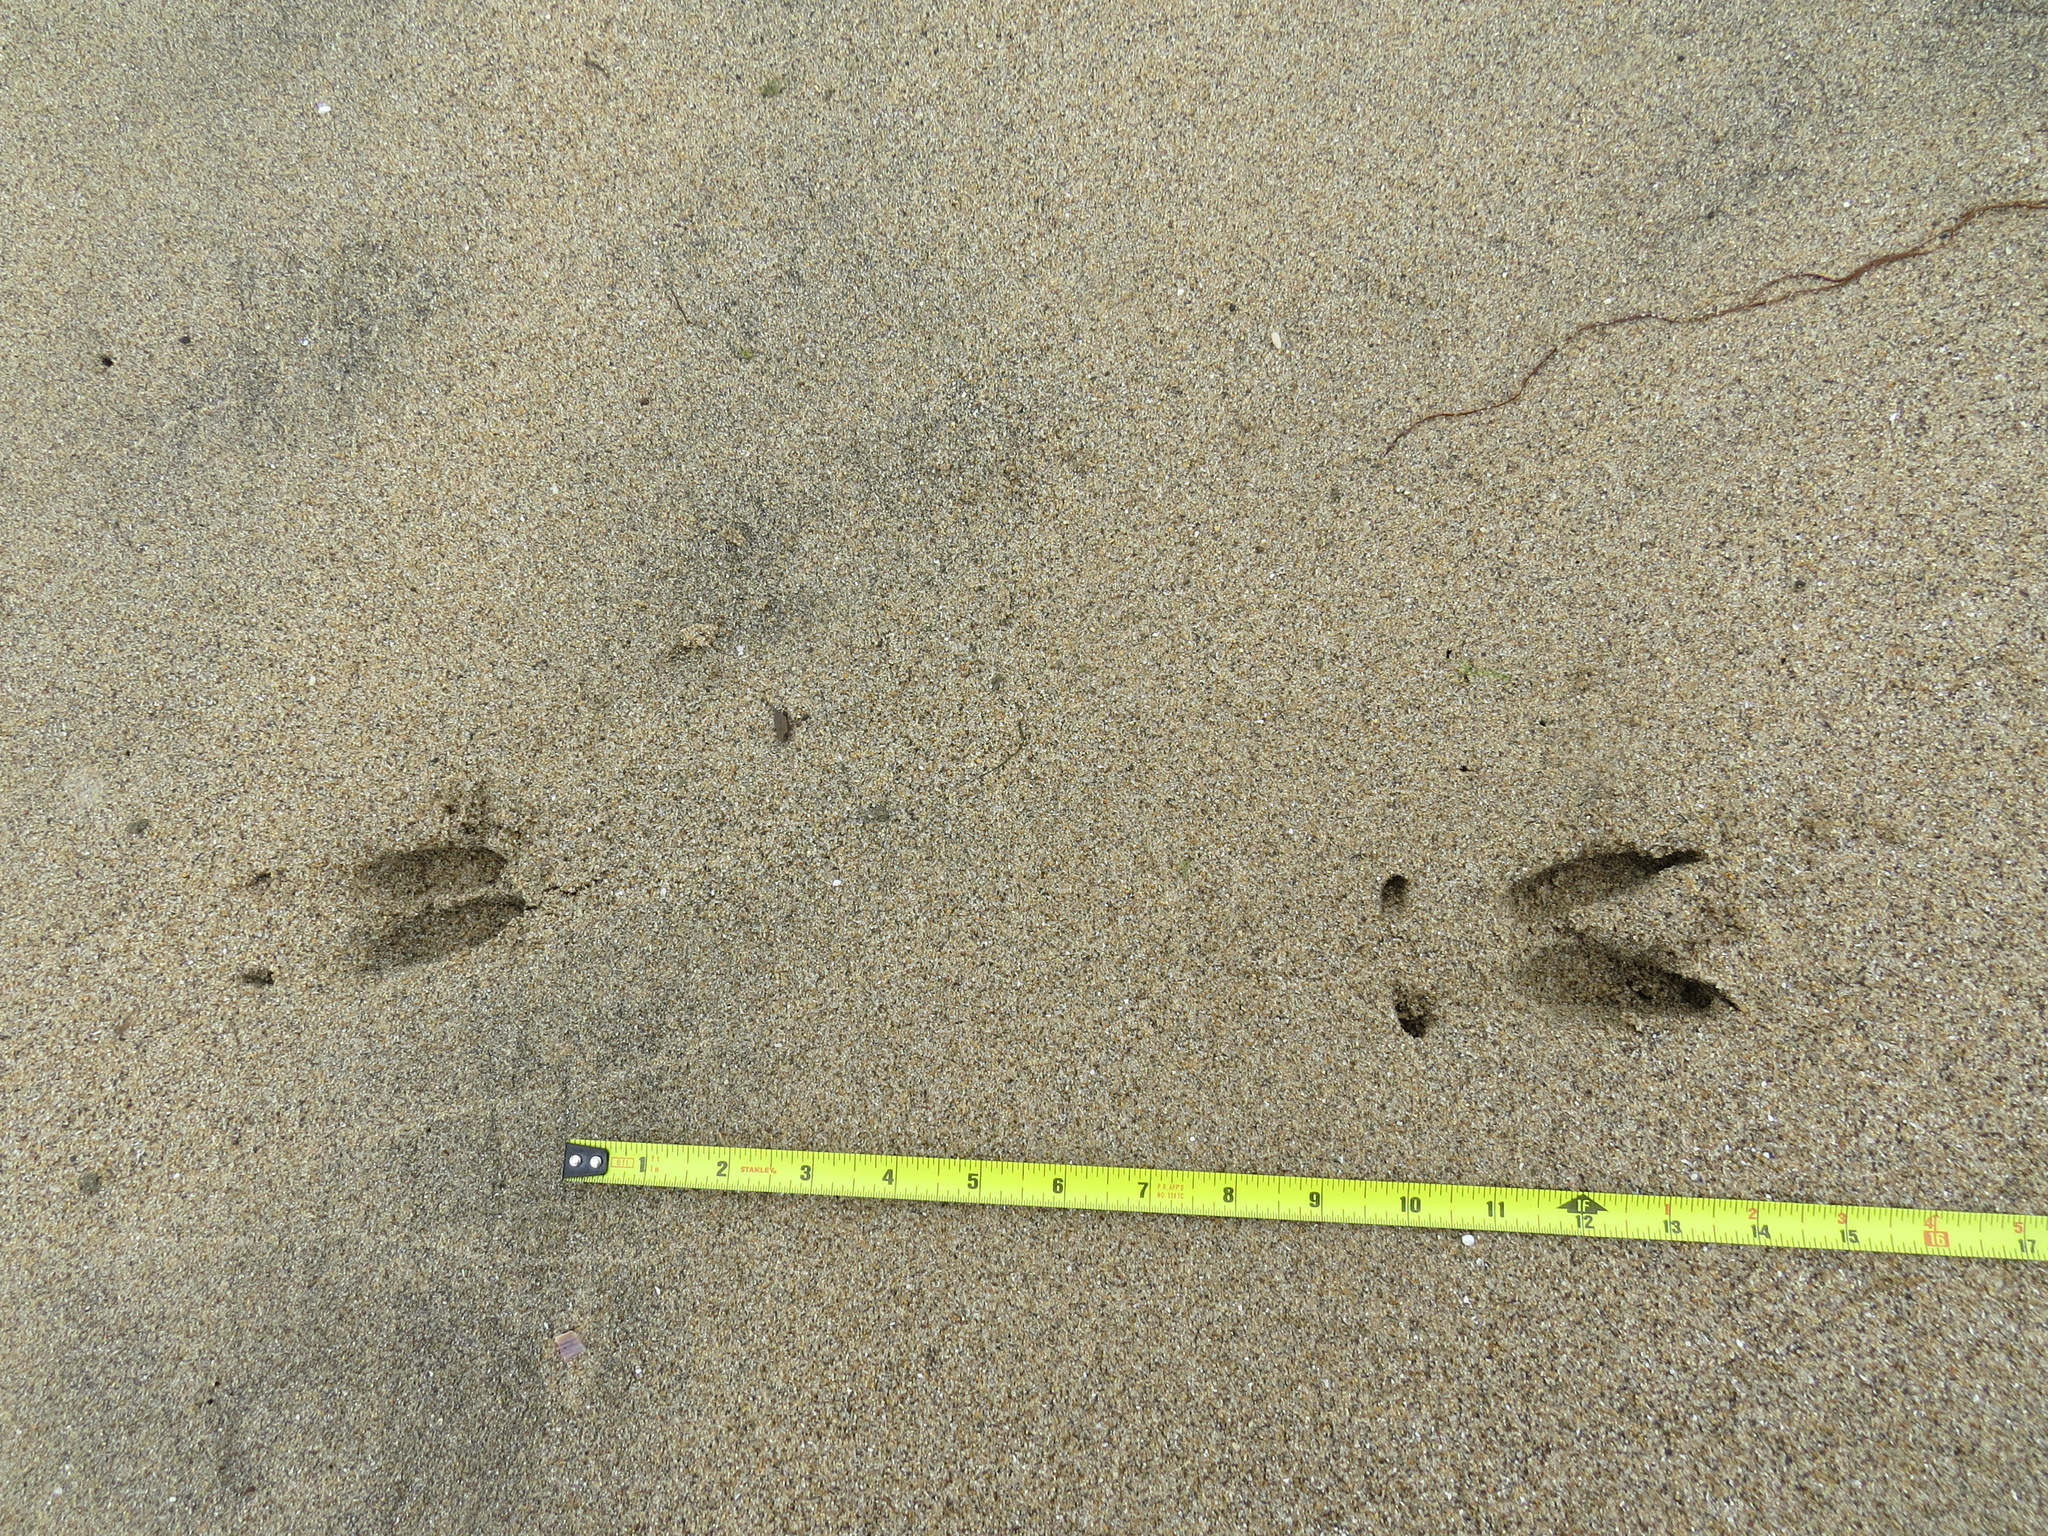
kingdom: Animalia
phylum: Chordata
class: Mammalia
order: Artiodactyla
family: Cervidae
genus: Odocoileus
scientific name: Odocoileus hemionus
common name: Mule deer
